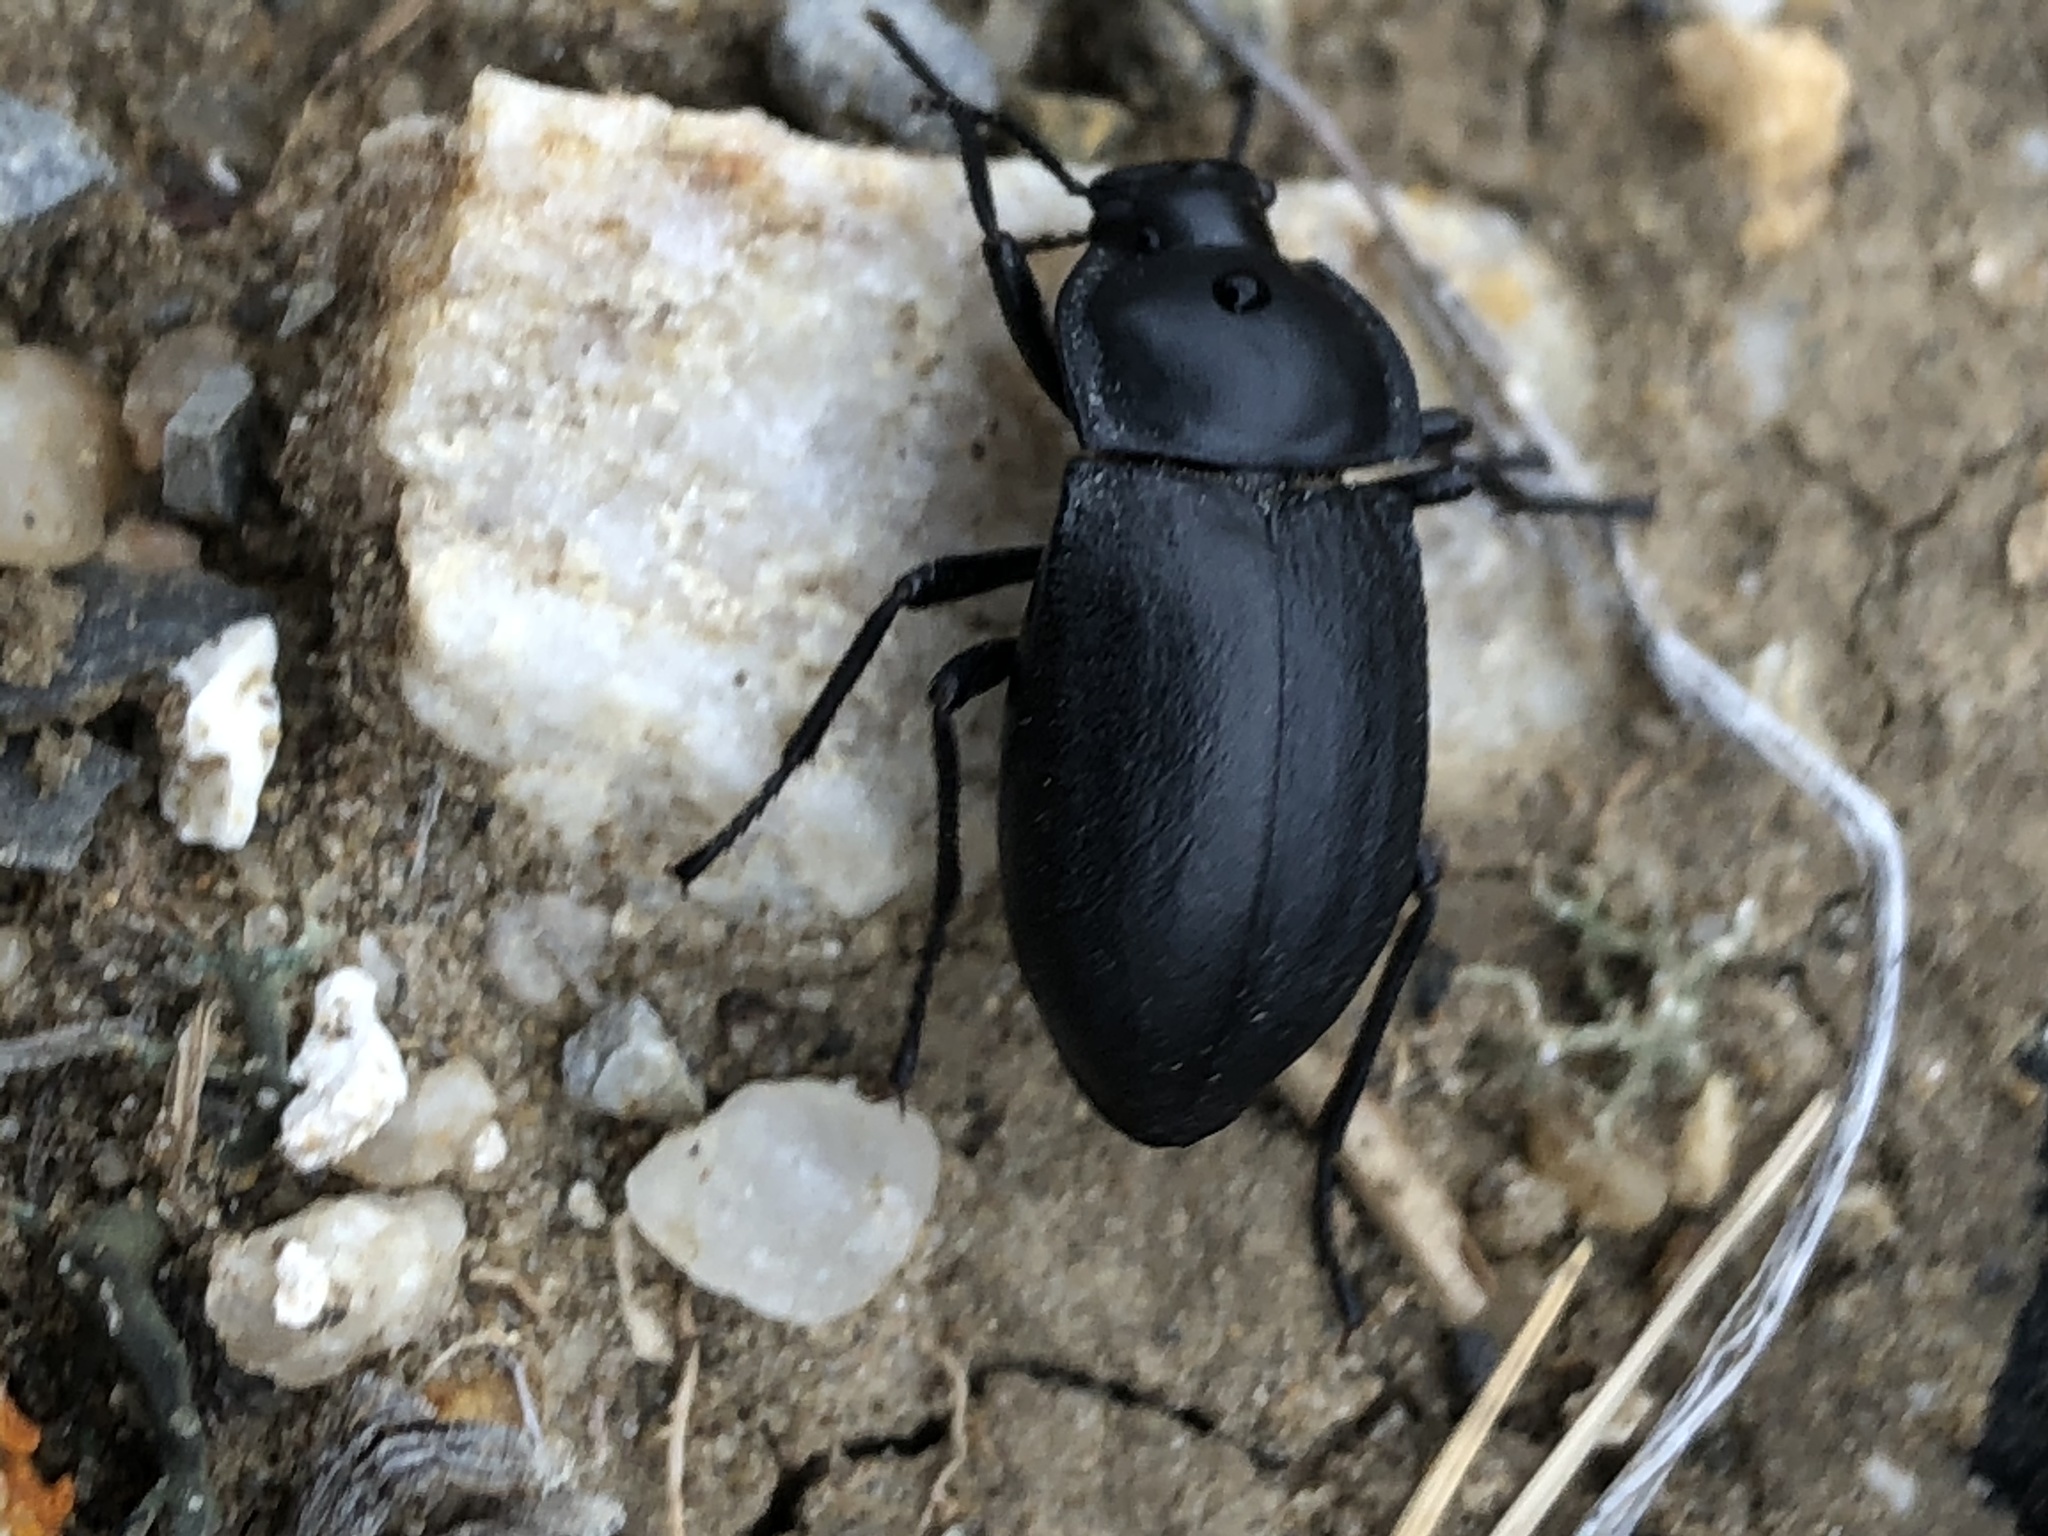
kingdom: Animalia
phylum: Arthropoda
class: Insecta
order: Coleoptera
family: Tenebrionidae
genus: Stenomorpha
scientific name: Stenomorpha polita
